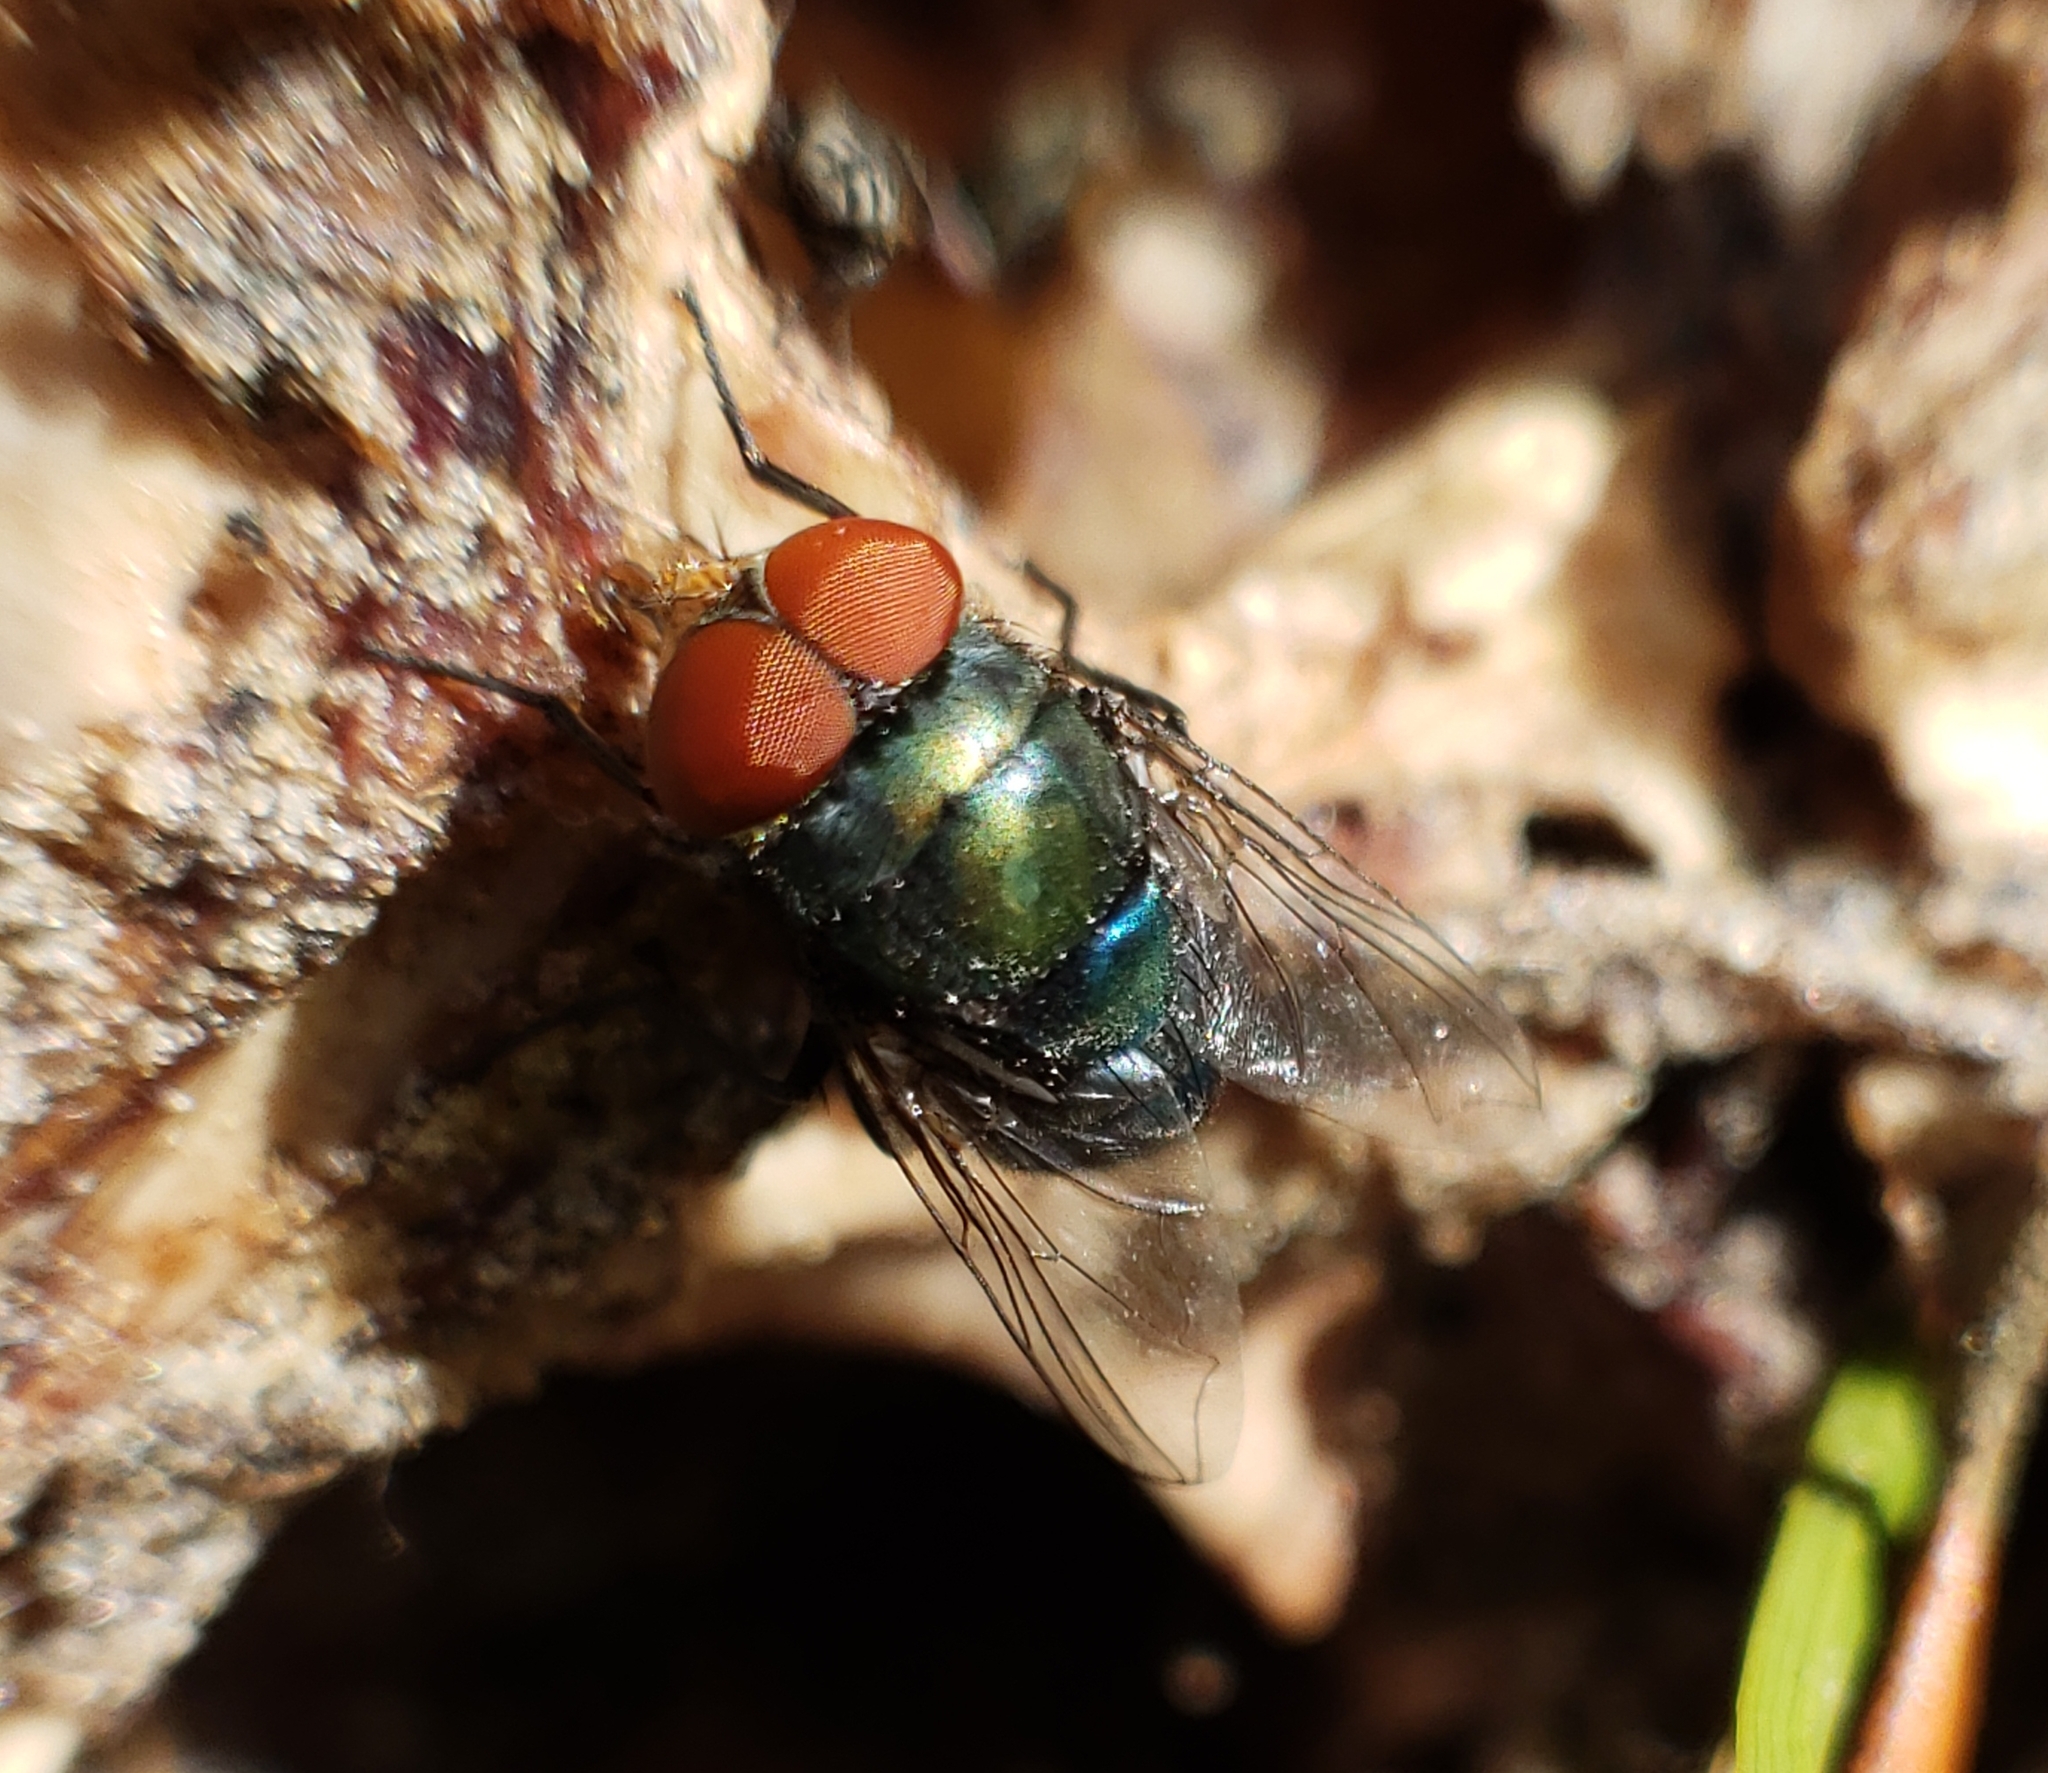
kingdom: Animalia
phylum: Arthropoda
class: Insecta
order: Diptera
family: Calliphoridae
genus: Chrysomya
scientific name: Chrysomya megacephala
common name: Blow fly
